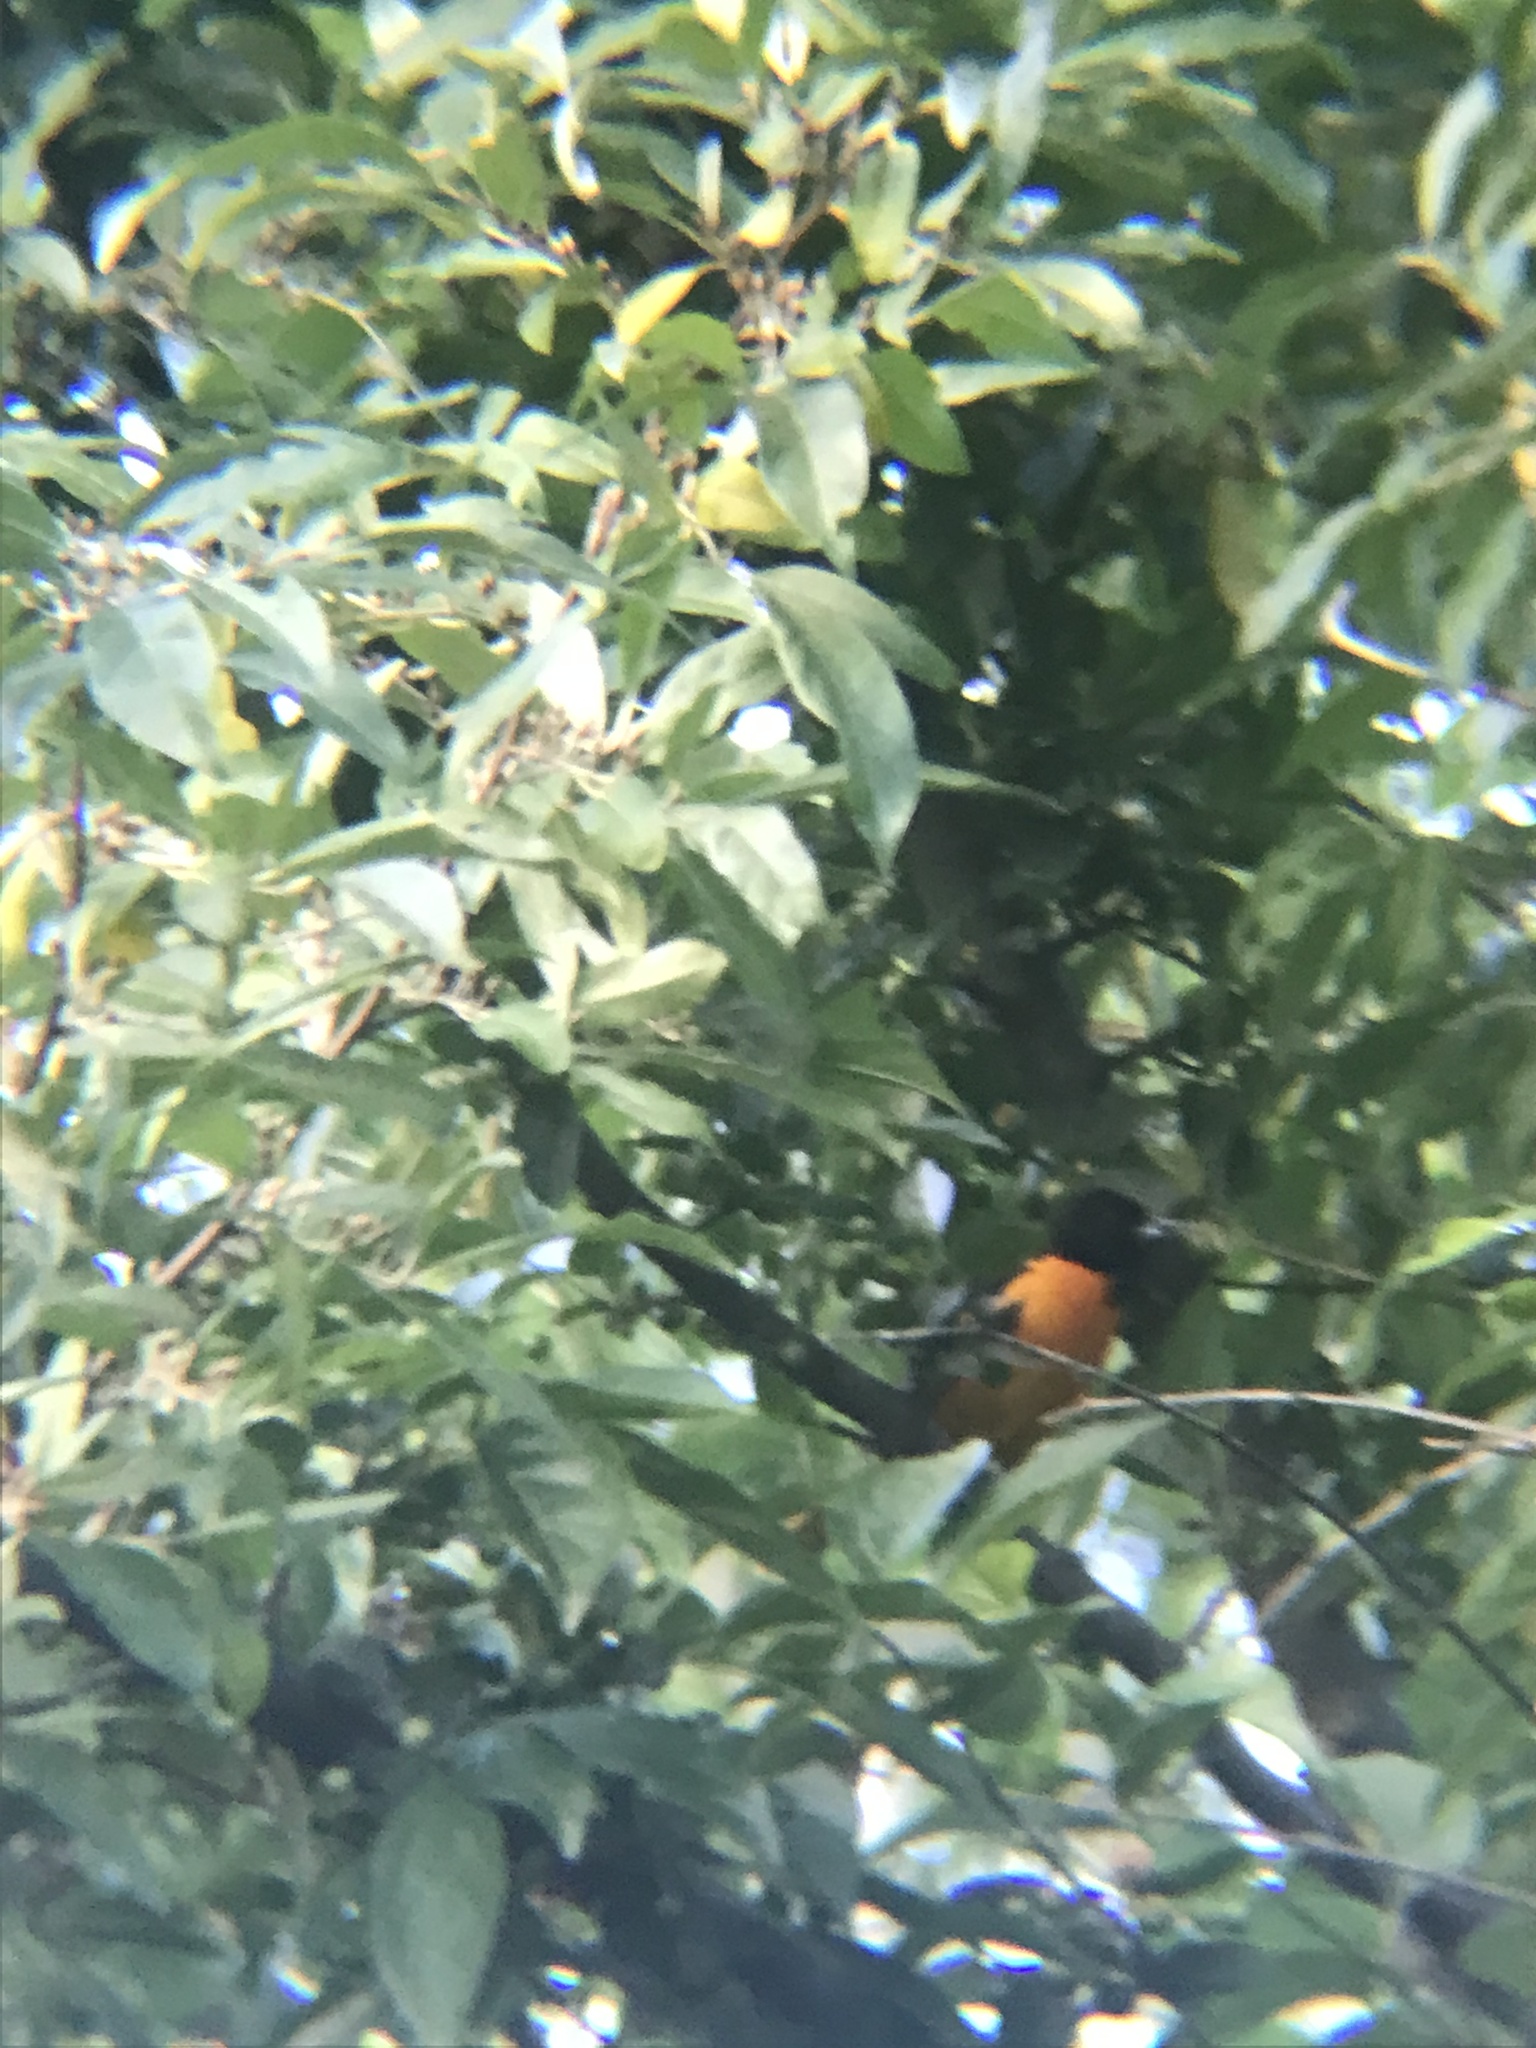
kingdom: Animalia
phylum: Chordata
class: Aves
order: Passeriformes
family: Icteridae
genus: Icterus
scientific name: Icterus galbula
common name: Baltimore oriole
